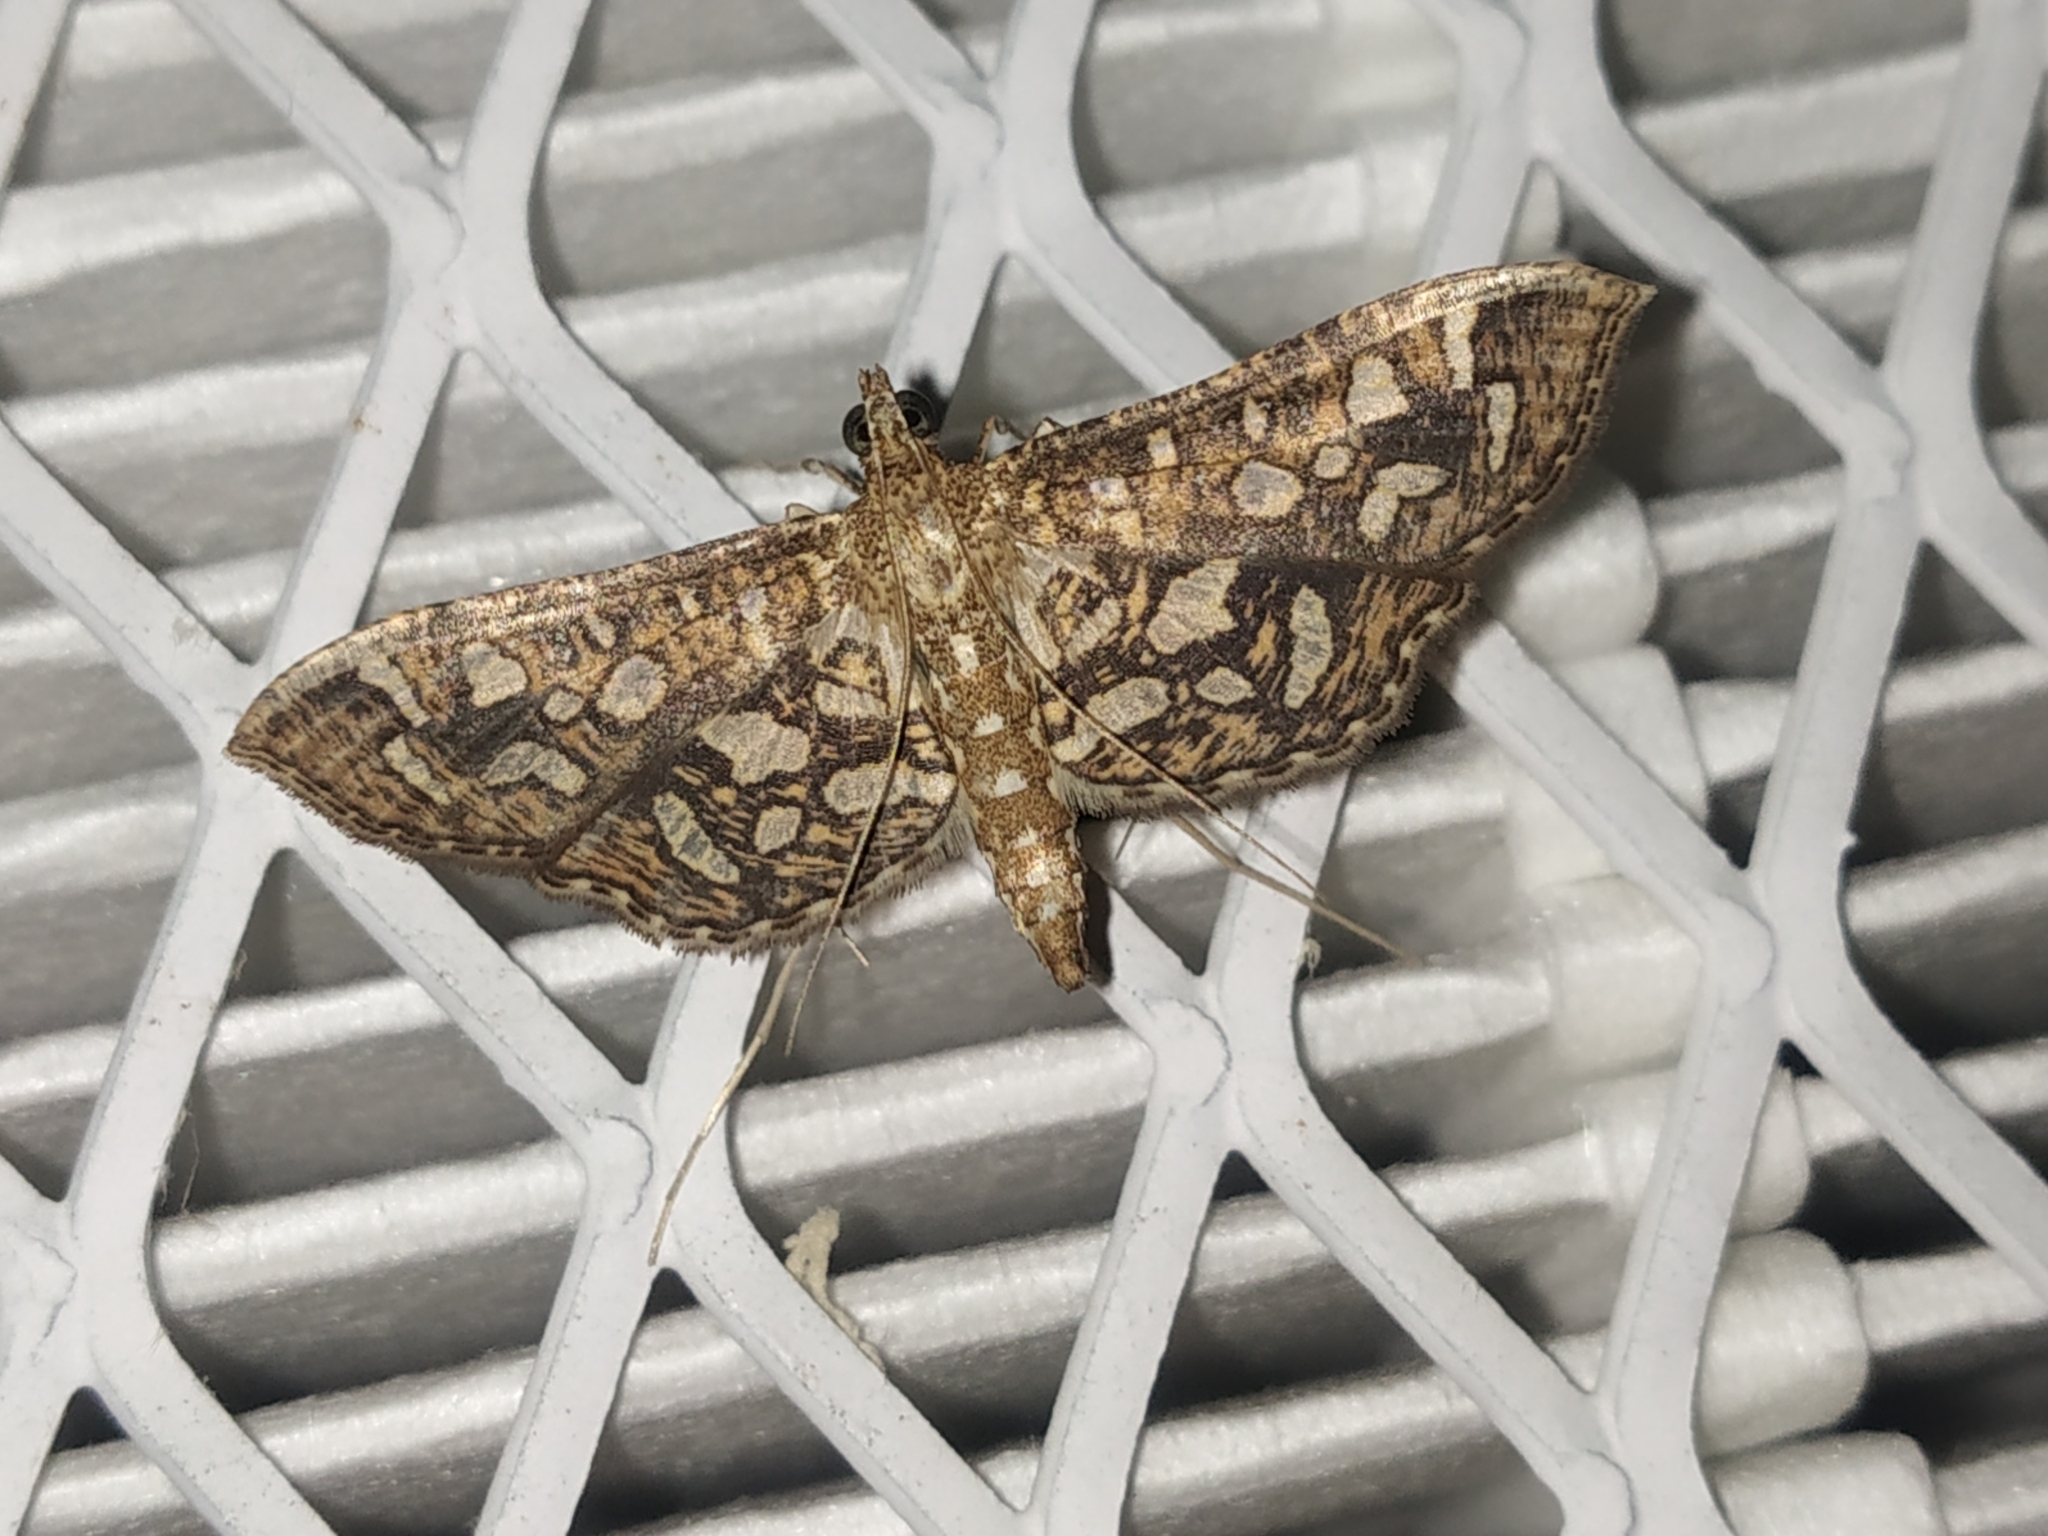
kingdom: Animalia
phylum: Arthropoda
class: Insecta
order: Lepidoptera
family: Crambidae
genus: Nausinoe
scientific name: Nausinoe geometralis
